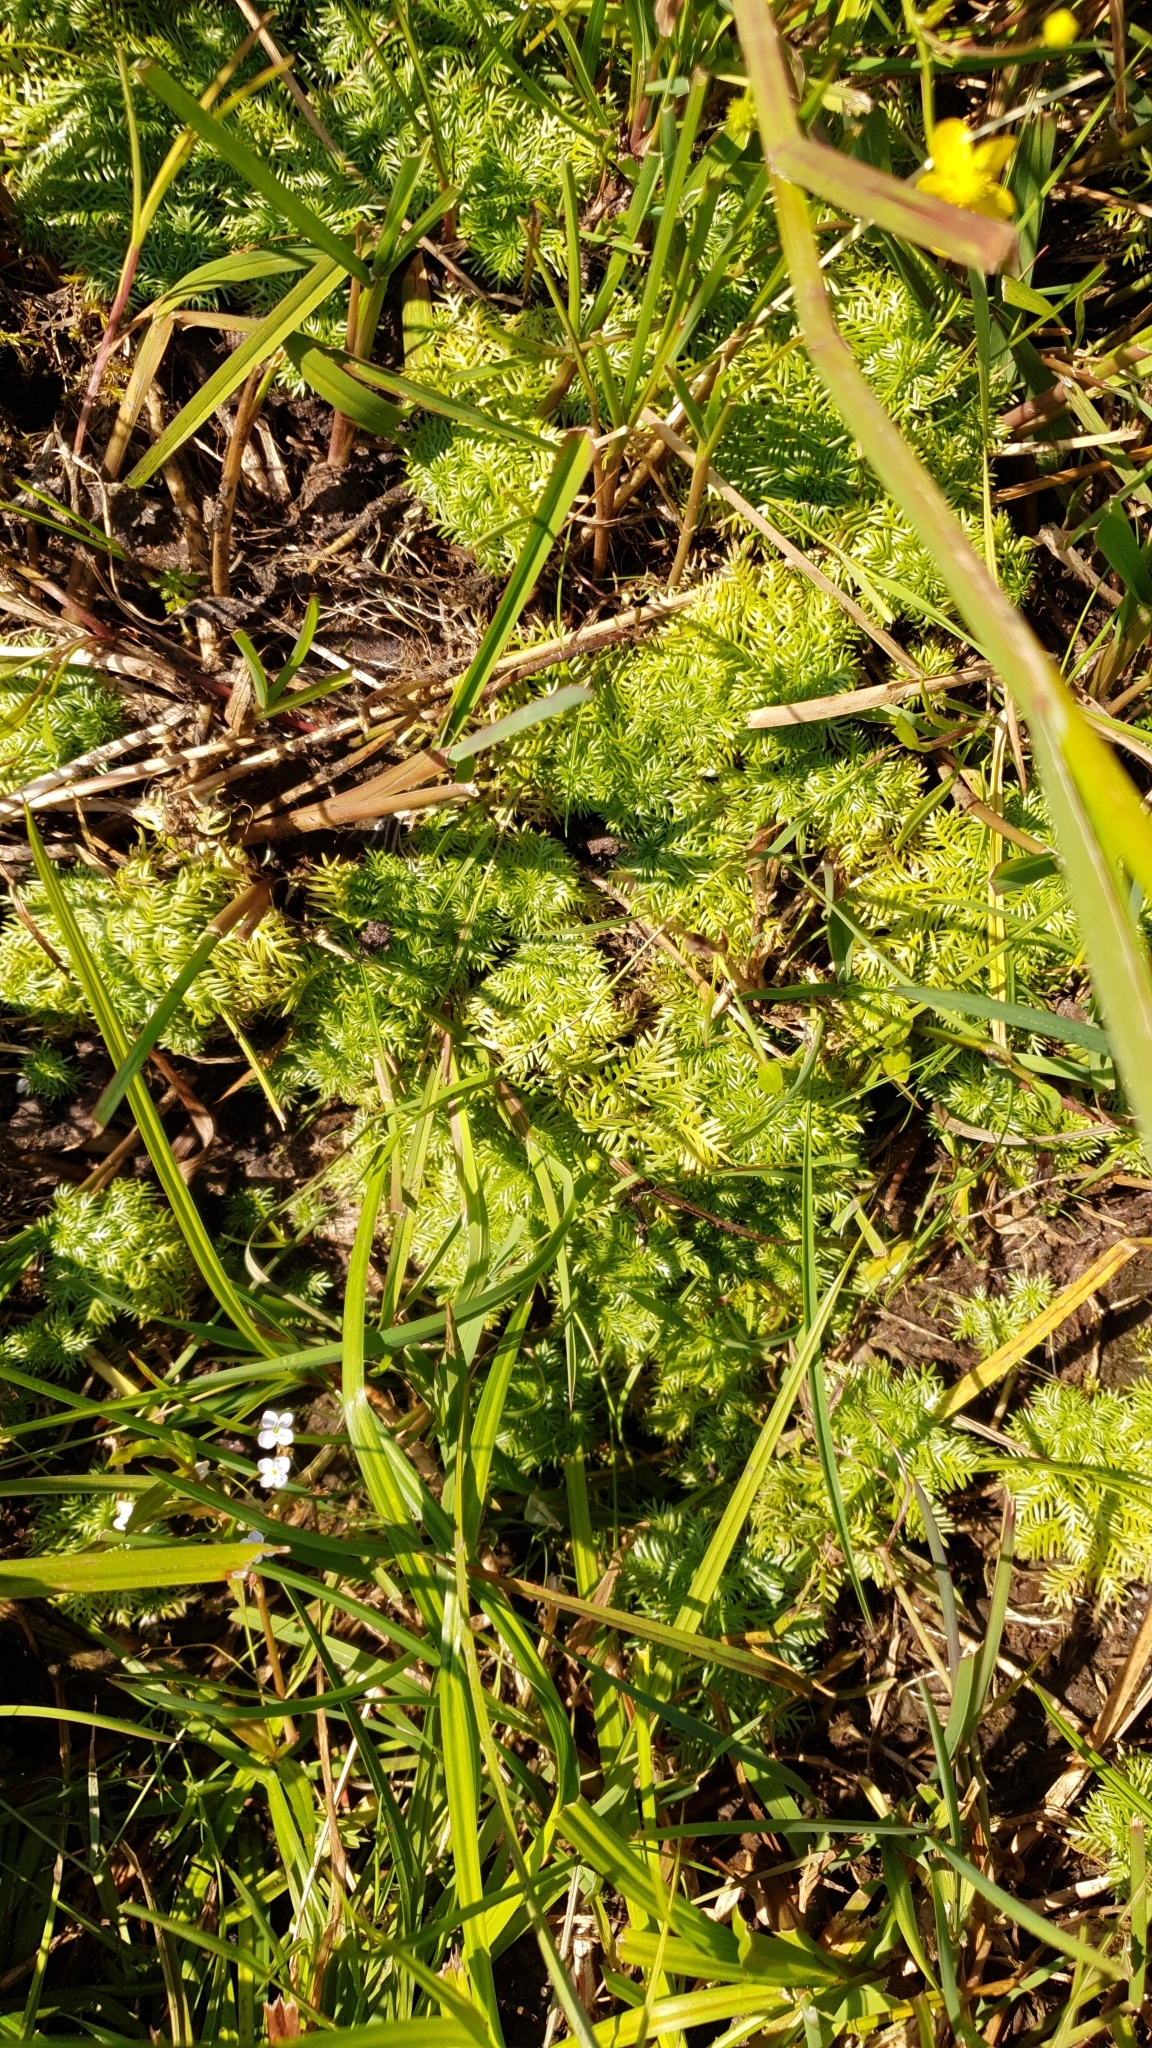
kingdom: Plantae
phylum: Tracheophyta
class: Magnoliopsida
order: Ericales
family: Primulaceae
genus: Hottonia
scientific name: Hottonia palustris
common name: Water-violet
